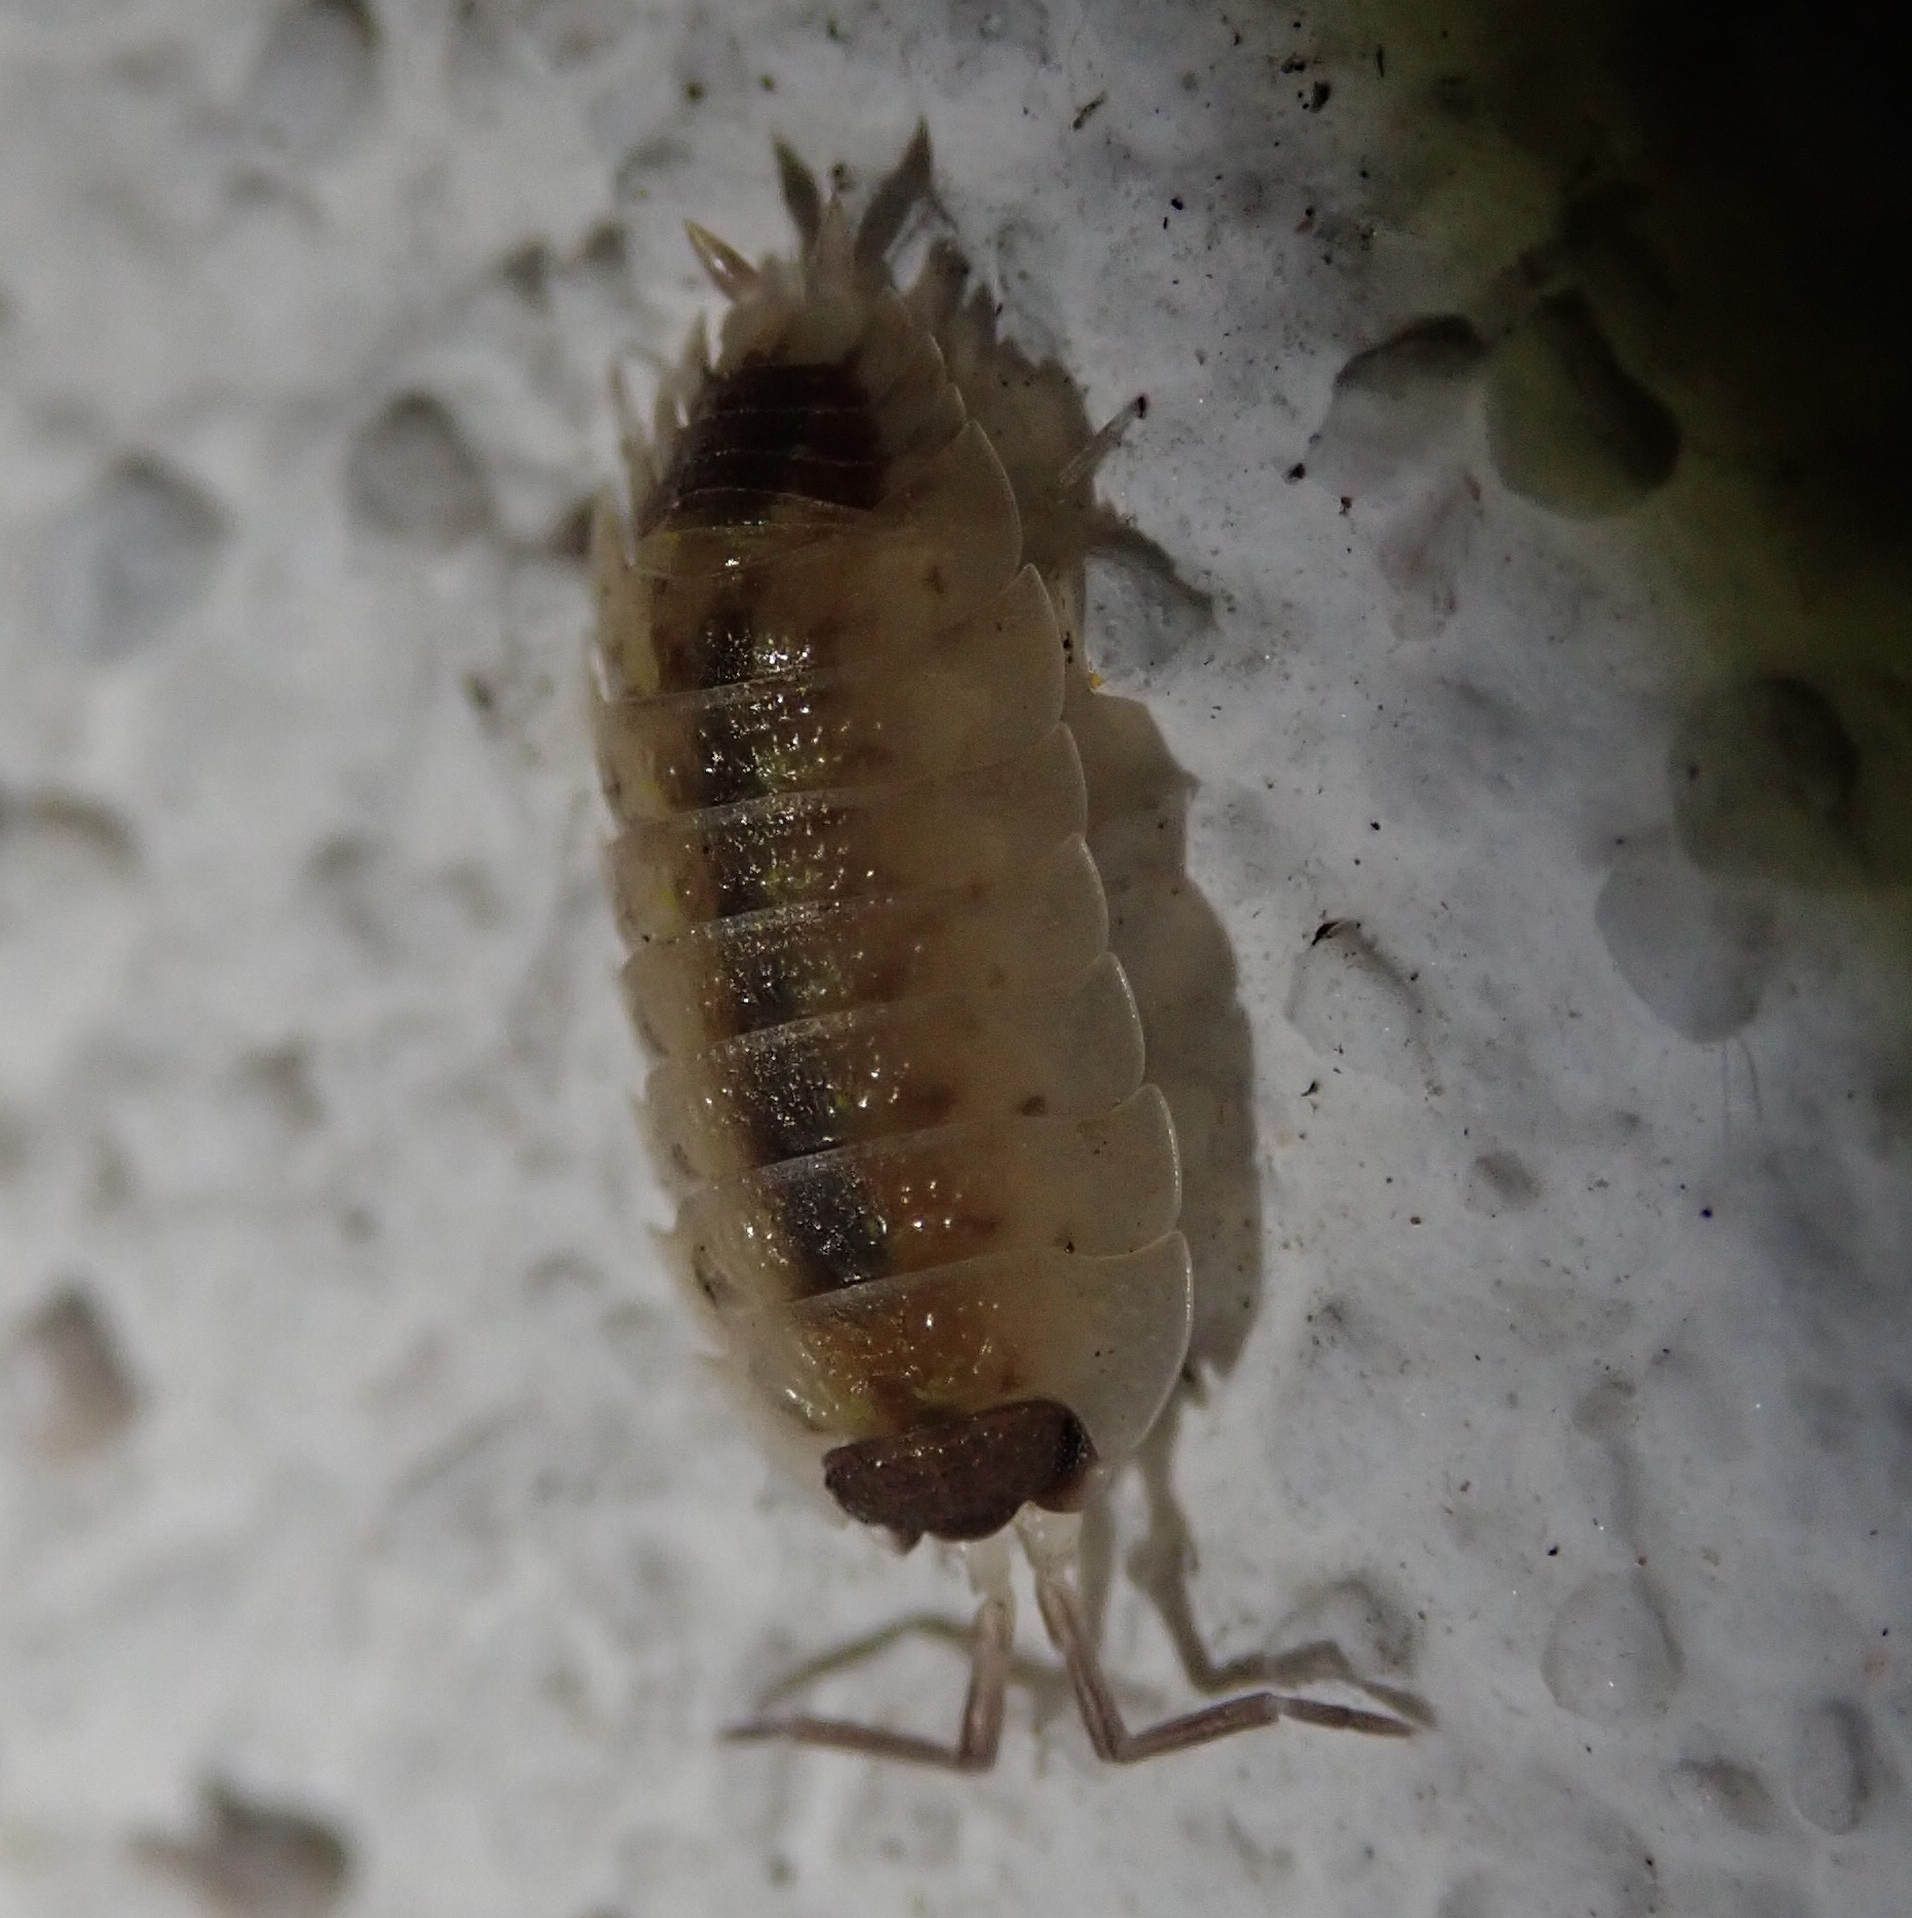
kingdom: Animalia
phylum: Arthropoda
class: Malacostraca
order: Isopoda
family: Porcellionidae
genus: Porcellio
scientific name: Porcellio spinicornis
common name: Painted woodlouse
